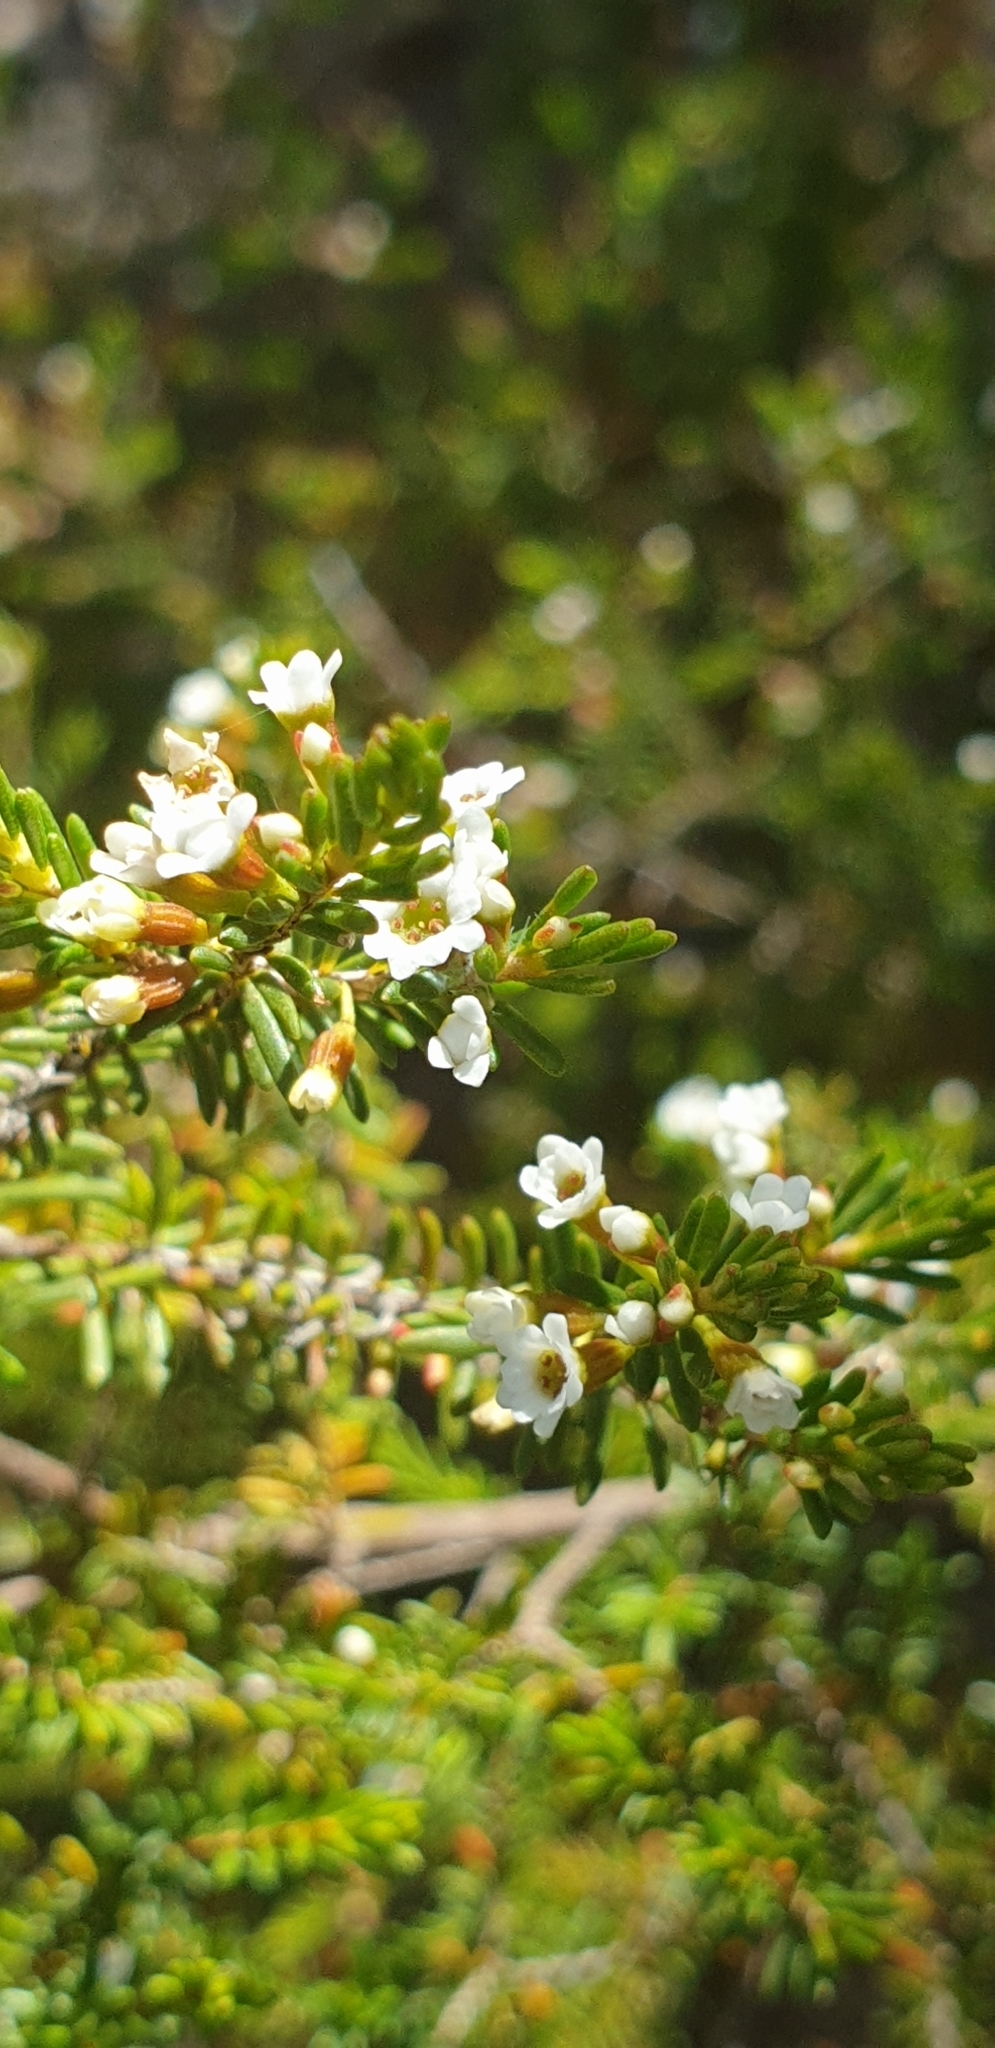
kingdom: Plantae
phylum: Tracheophyta
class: Magnoliopsida
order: Myrtales
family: Myrtaceae
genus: Thryptomene
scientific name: Thryptomene ericaea
